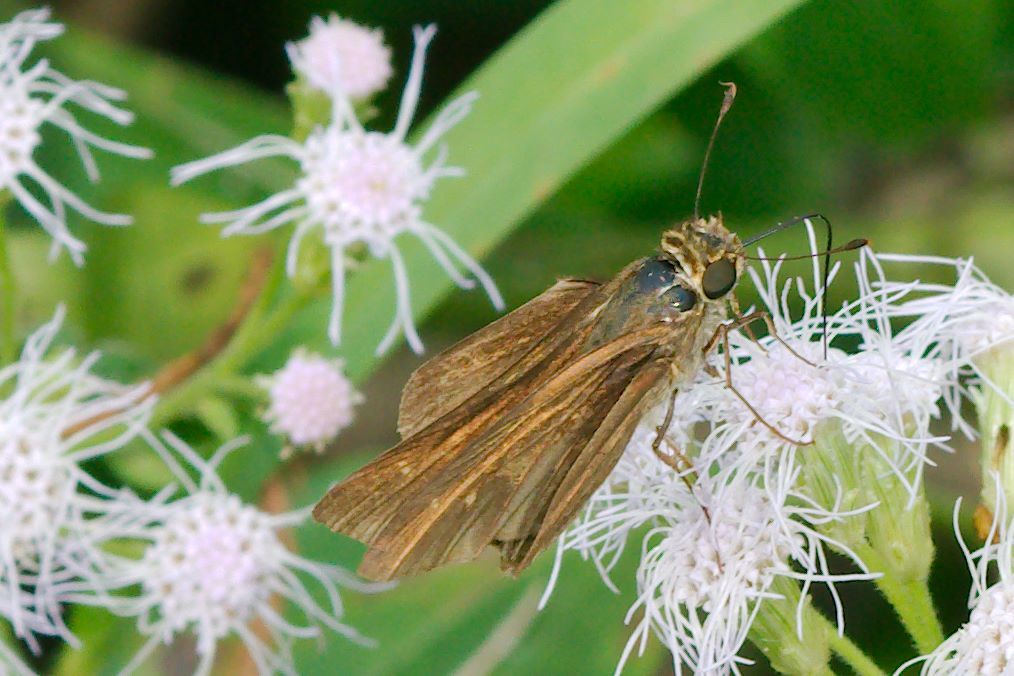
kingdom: Animalia
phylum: Arthropoda
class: Insecta
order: Lepidoptera
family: Hesperiidae
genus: Panoquina
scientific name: Panoquina ocola
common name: Ocola skipper
